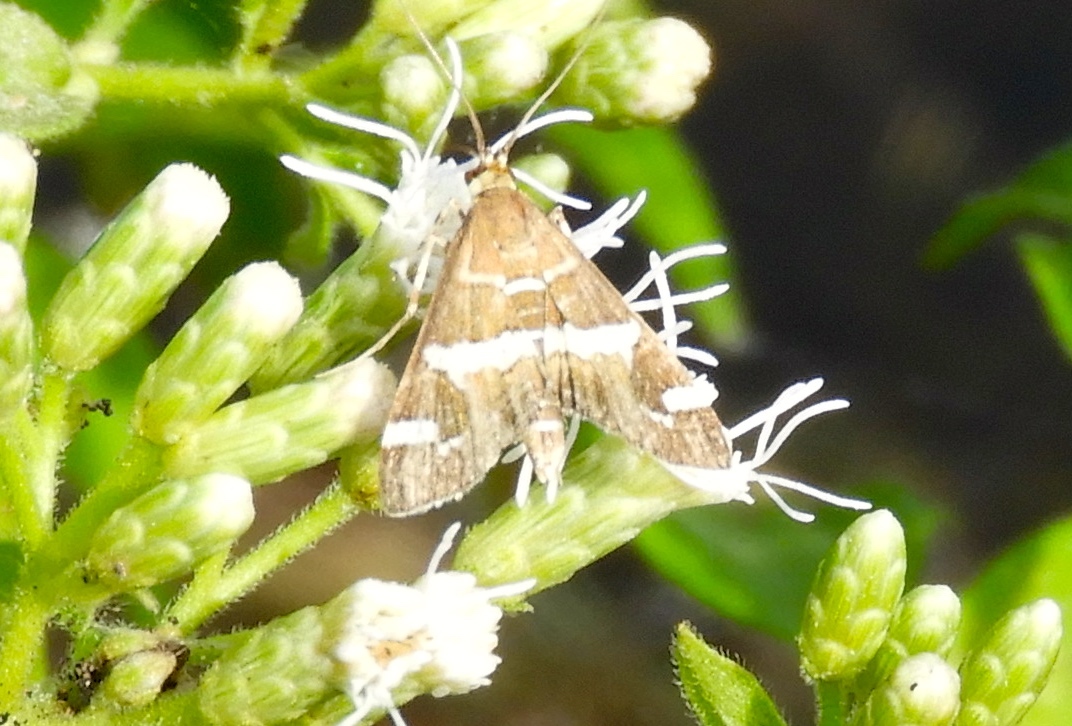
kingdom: Animalia
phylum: Arthropoda
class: Insecta
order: Lepidoptera
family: Crambidae
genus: Spoladea
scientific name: Spoladea recurvalis
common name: Beet webworm moth
